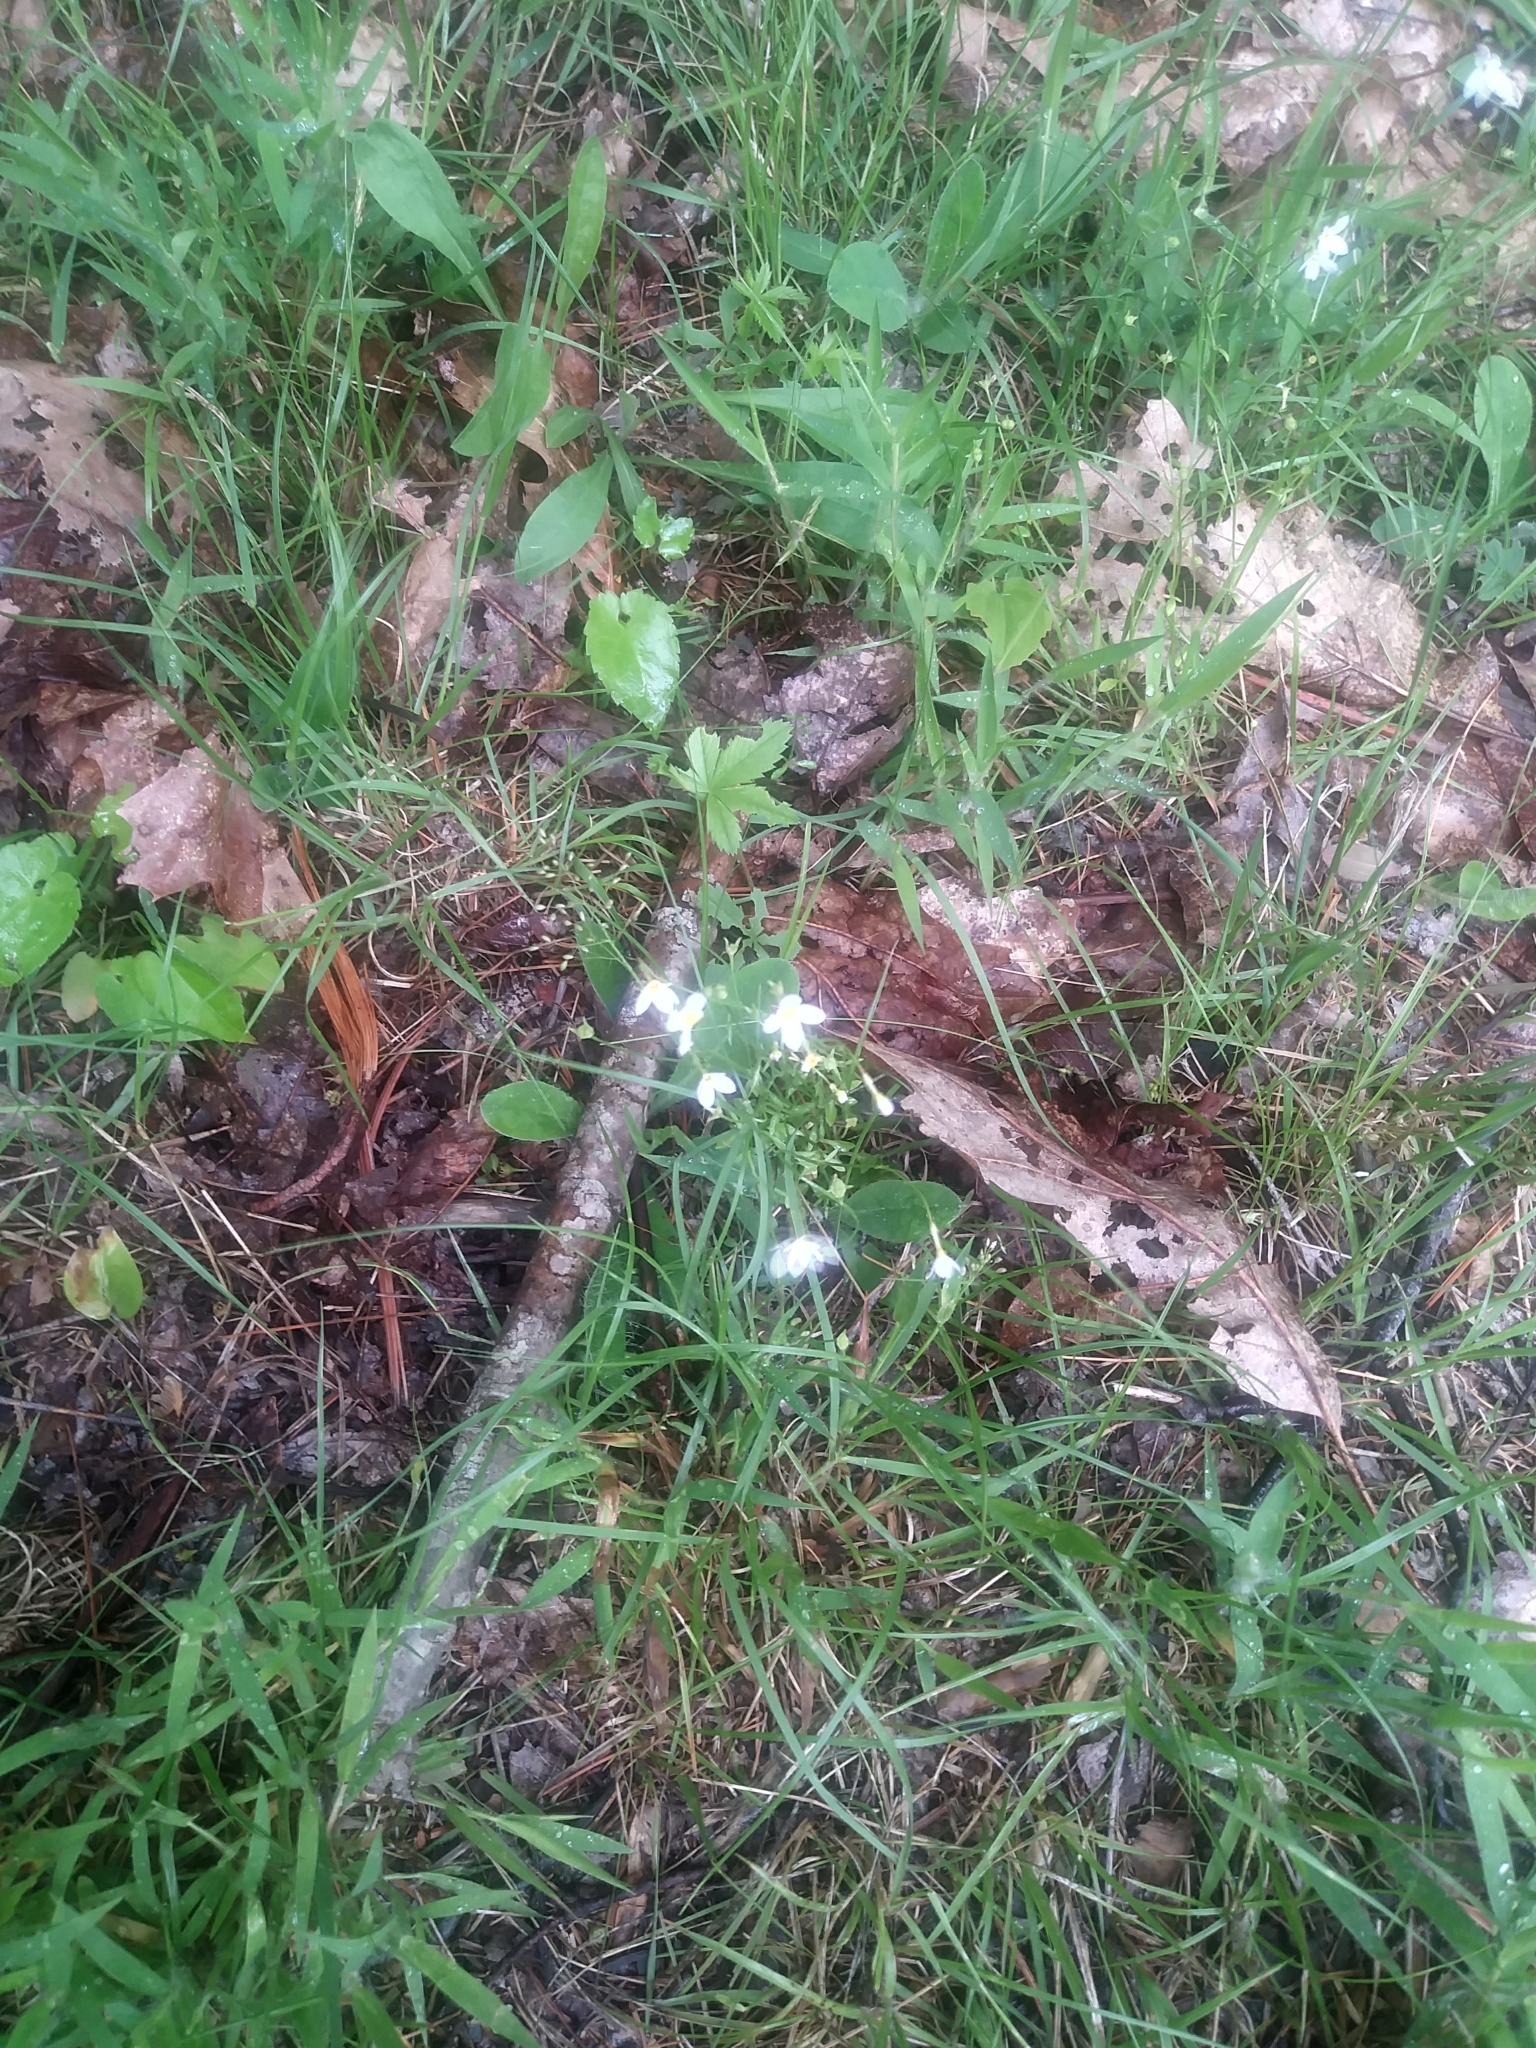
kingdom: Plantae
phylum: Tracheophyta
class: Magnoliopsida
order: Gentianales
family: Rubiaceae
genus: Houstonia
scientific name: Houstonia caerulea
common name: Bluets
